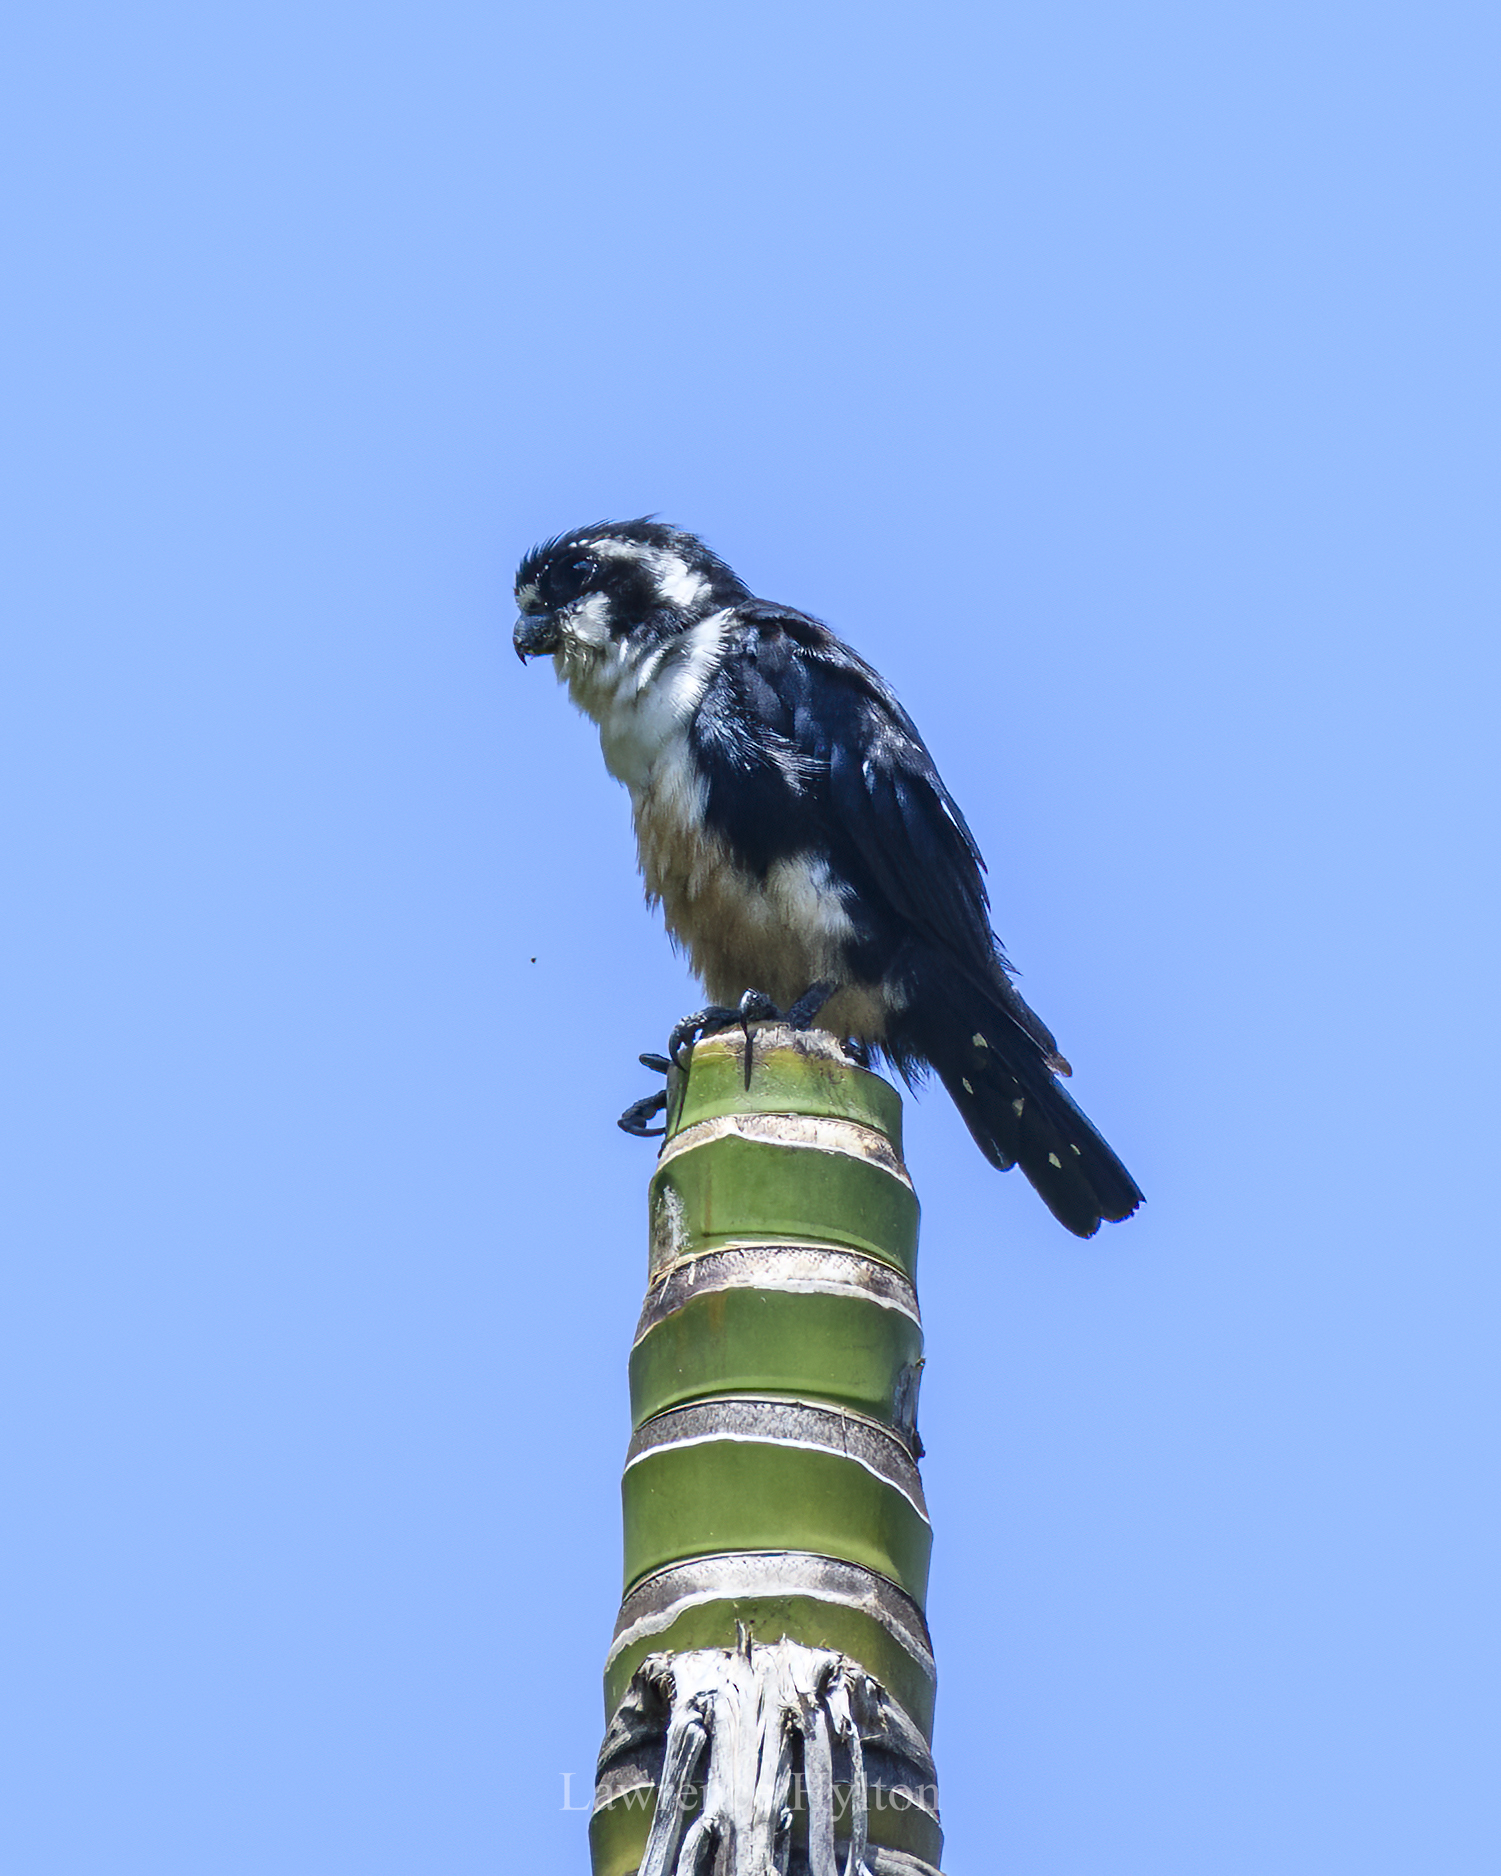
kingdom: Animalia
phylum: Chordata
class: Aves
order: Falconiformes
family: Falconidae
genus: Microhierax
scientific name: Microhierax fringillarius
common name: Black-thighed falconet
